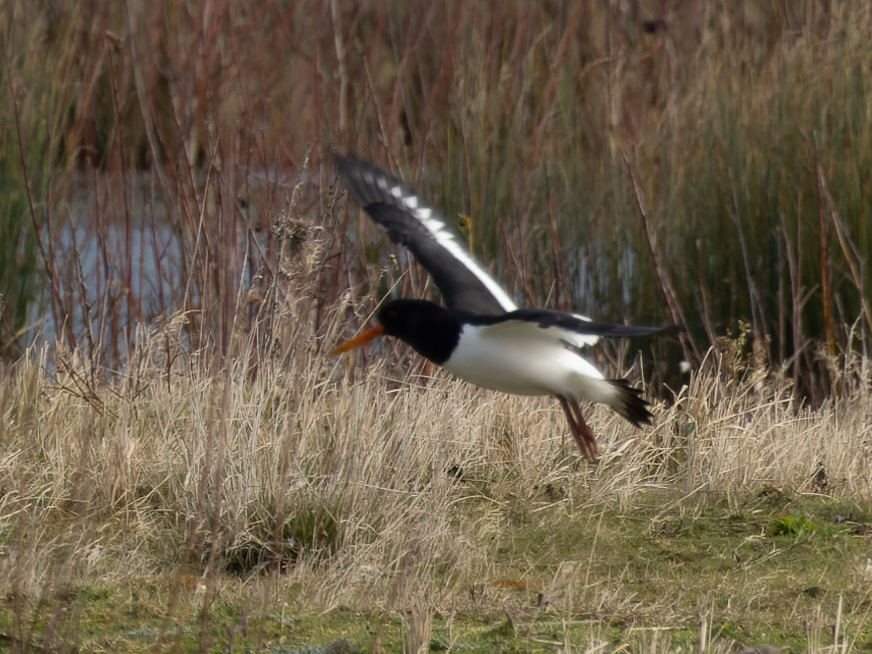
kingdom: Animalia
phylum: Chordata
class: Aves
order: Charadriiformes
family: Haematopodidae
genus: Haematopus
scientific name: Haematopus ostralegus
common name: Eurasian oystercatcher
